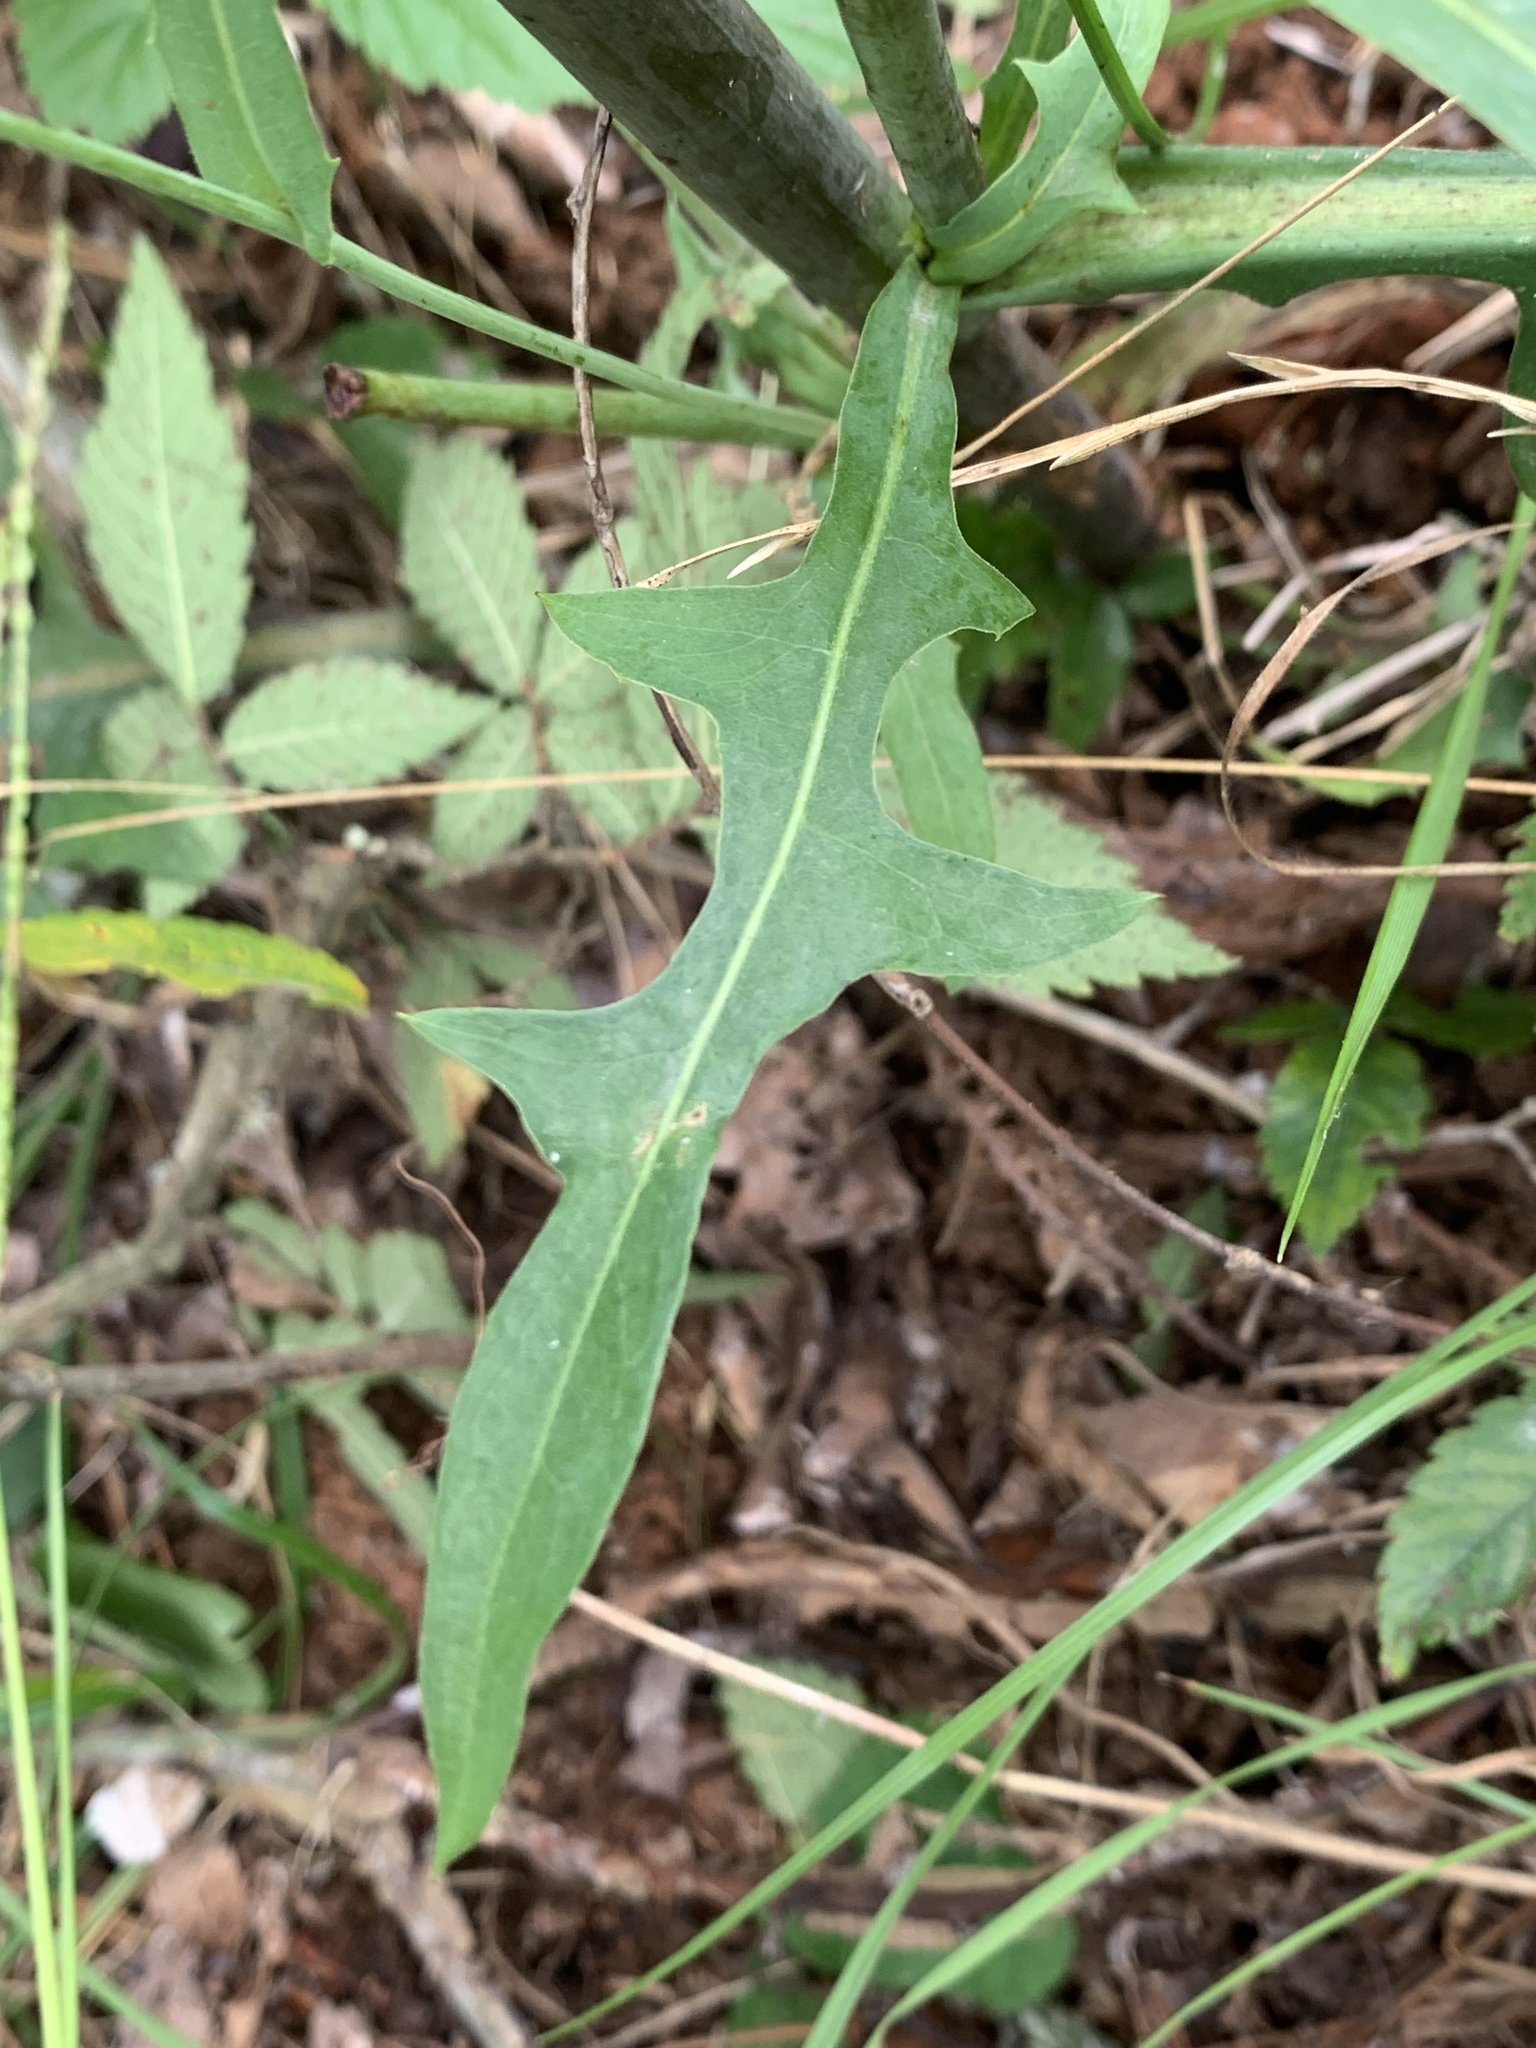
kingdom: Plantae
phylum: Tracheophyta
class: Magnoliopsida
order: Asterales
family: Asteraceae
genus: Lactuca
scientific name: Lactuca canadensis
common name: Canada lettuce
